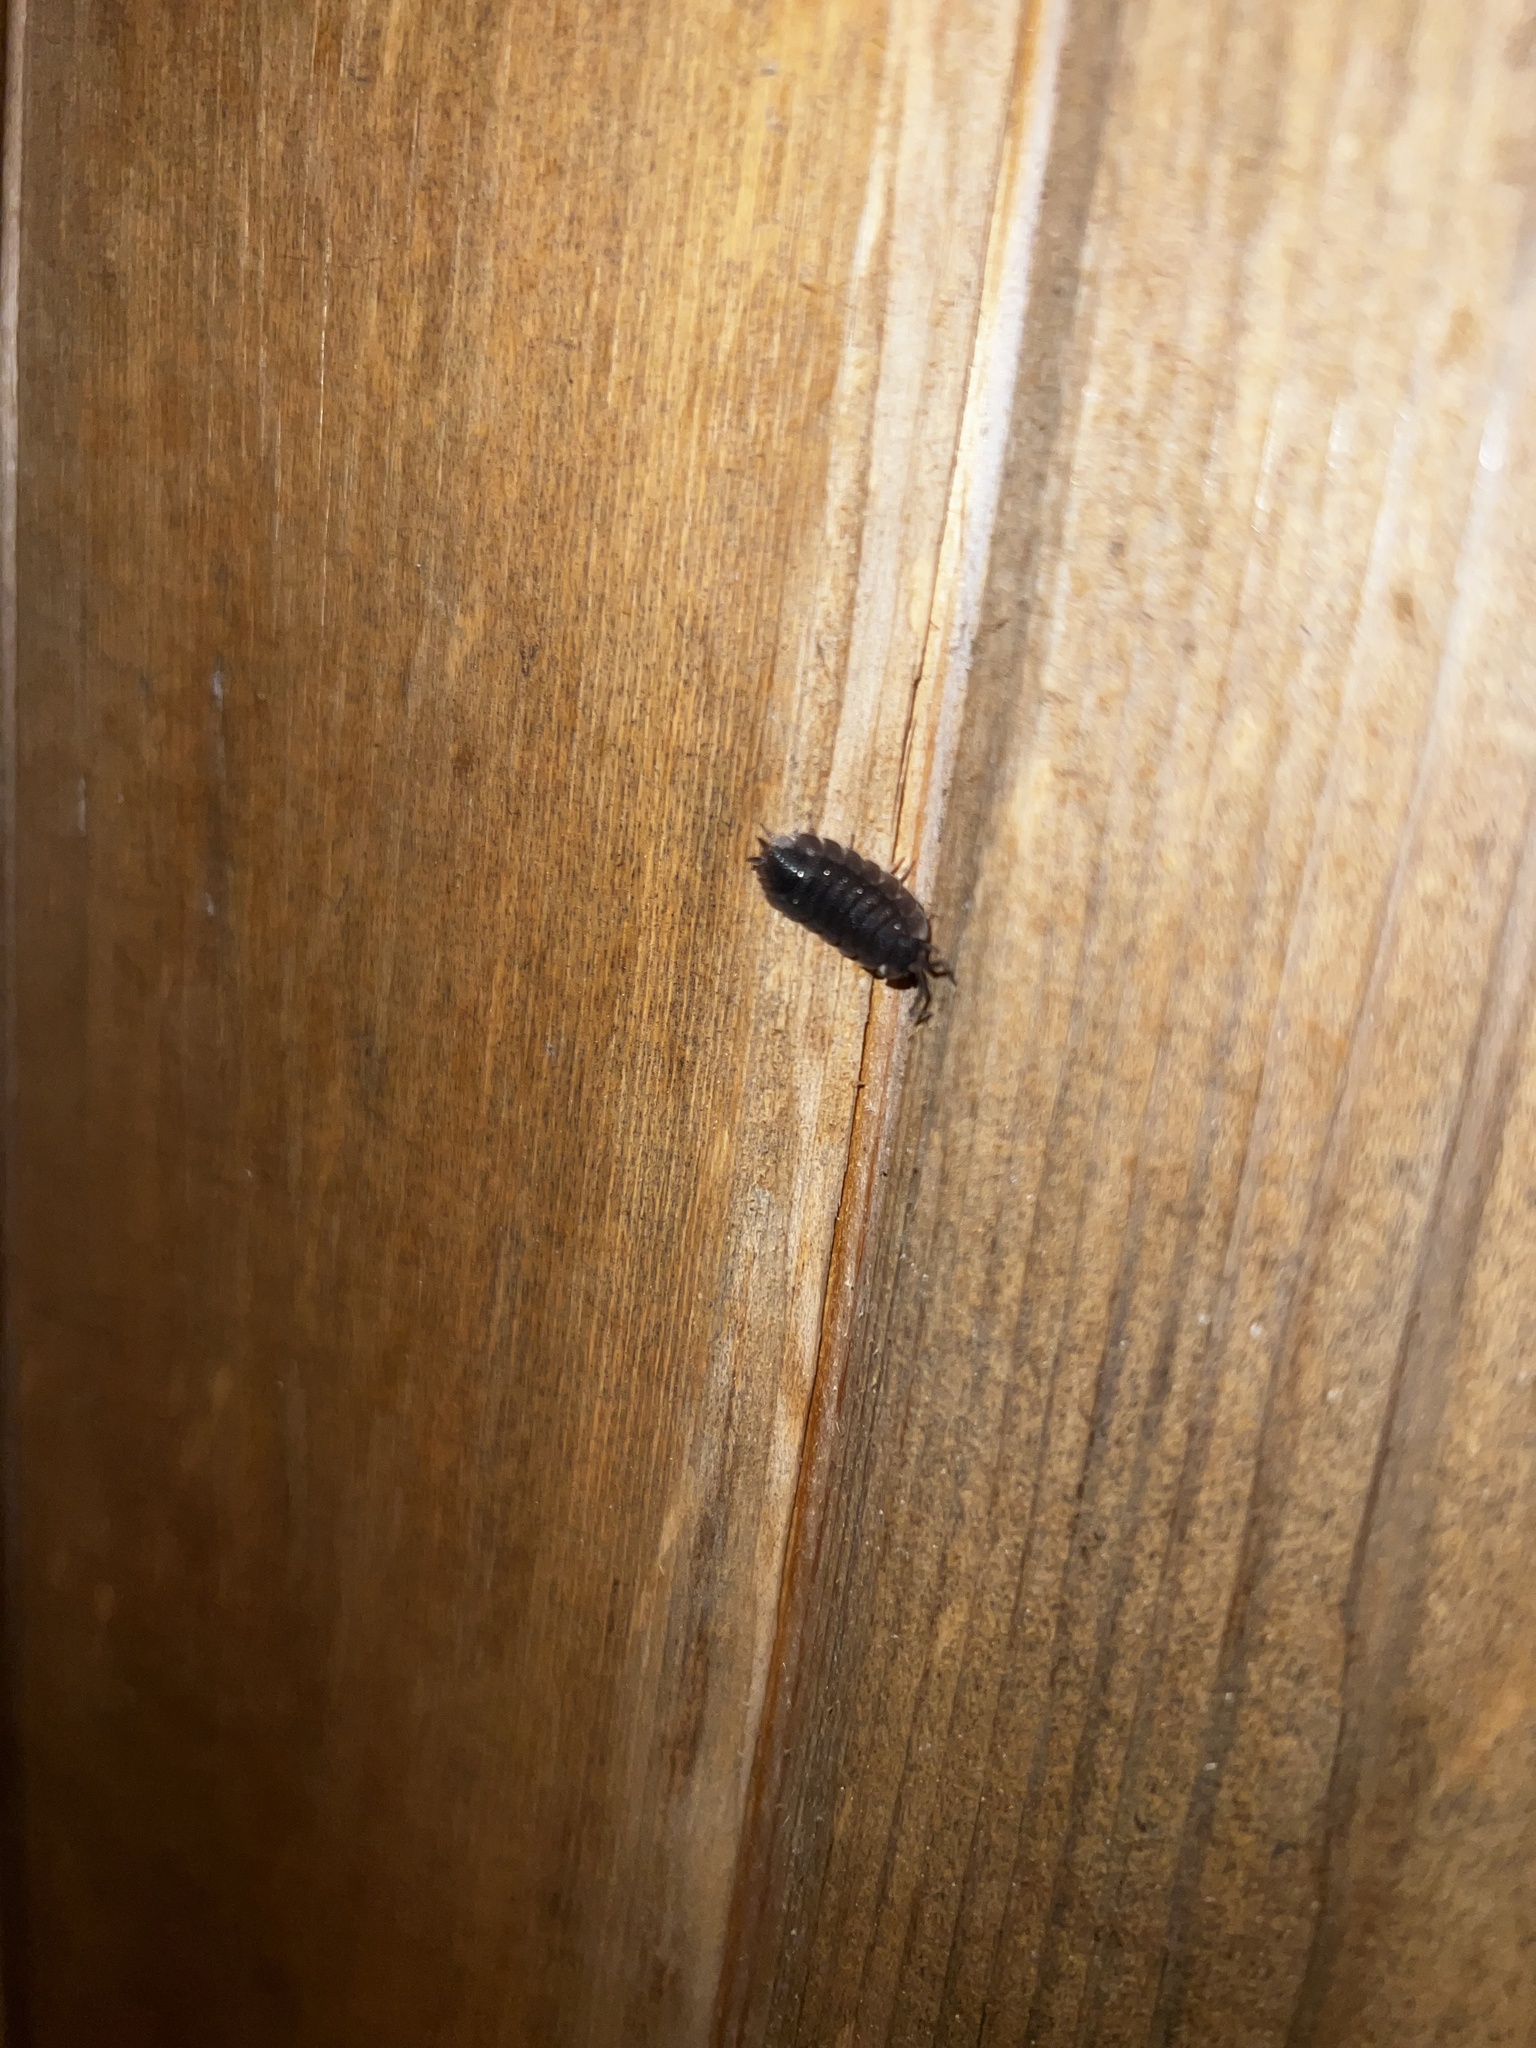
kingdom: Animalia
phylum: Arthropoda
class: Malacostraca
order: Isopoda
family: Porcellionidae
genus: Porcellio
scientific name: Porcellio scaber
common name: Common rough woodlouse
